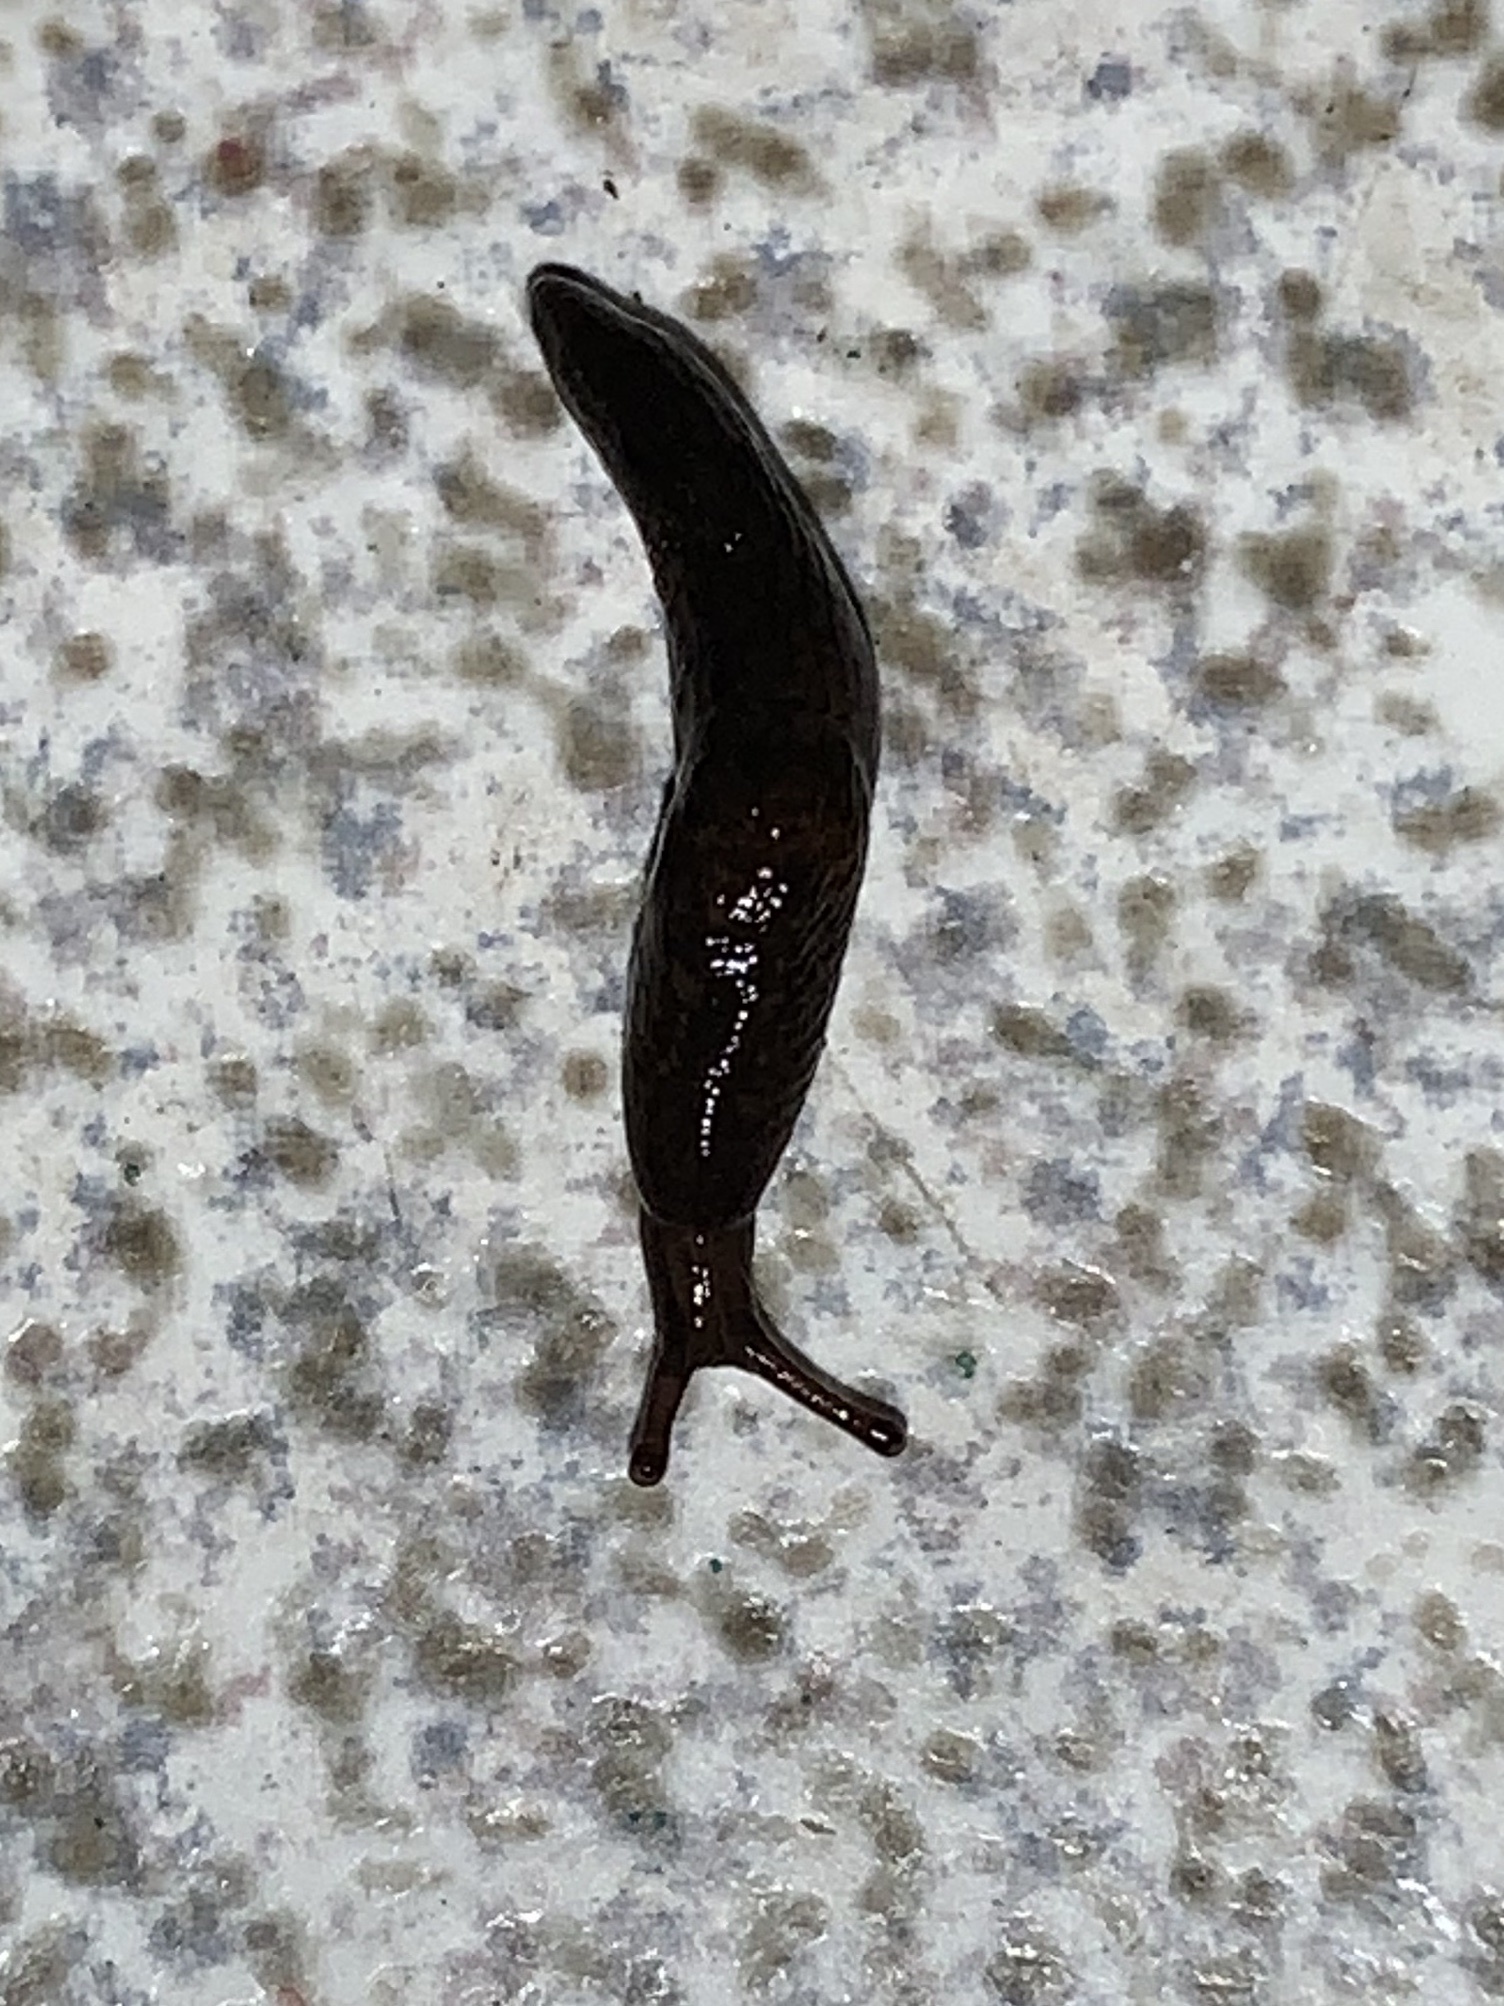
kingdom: Animalia
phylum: Mollusca
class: Gastropoda
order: Stylommatophora
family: Agriolimacidae
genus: Deroceras
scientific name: Deroceras laeve
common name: Marsh slug
